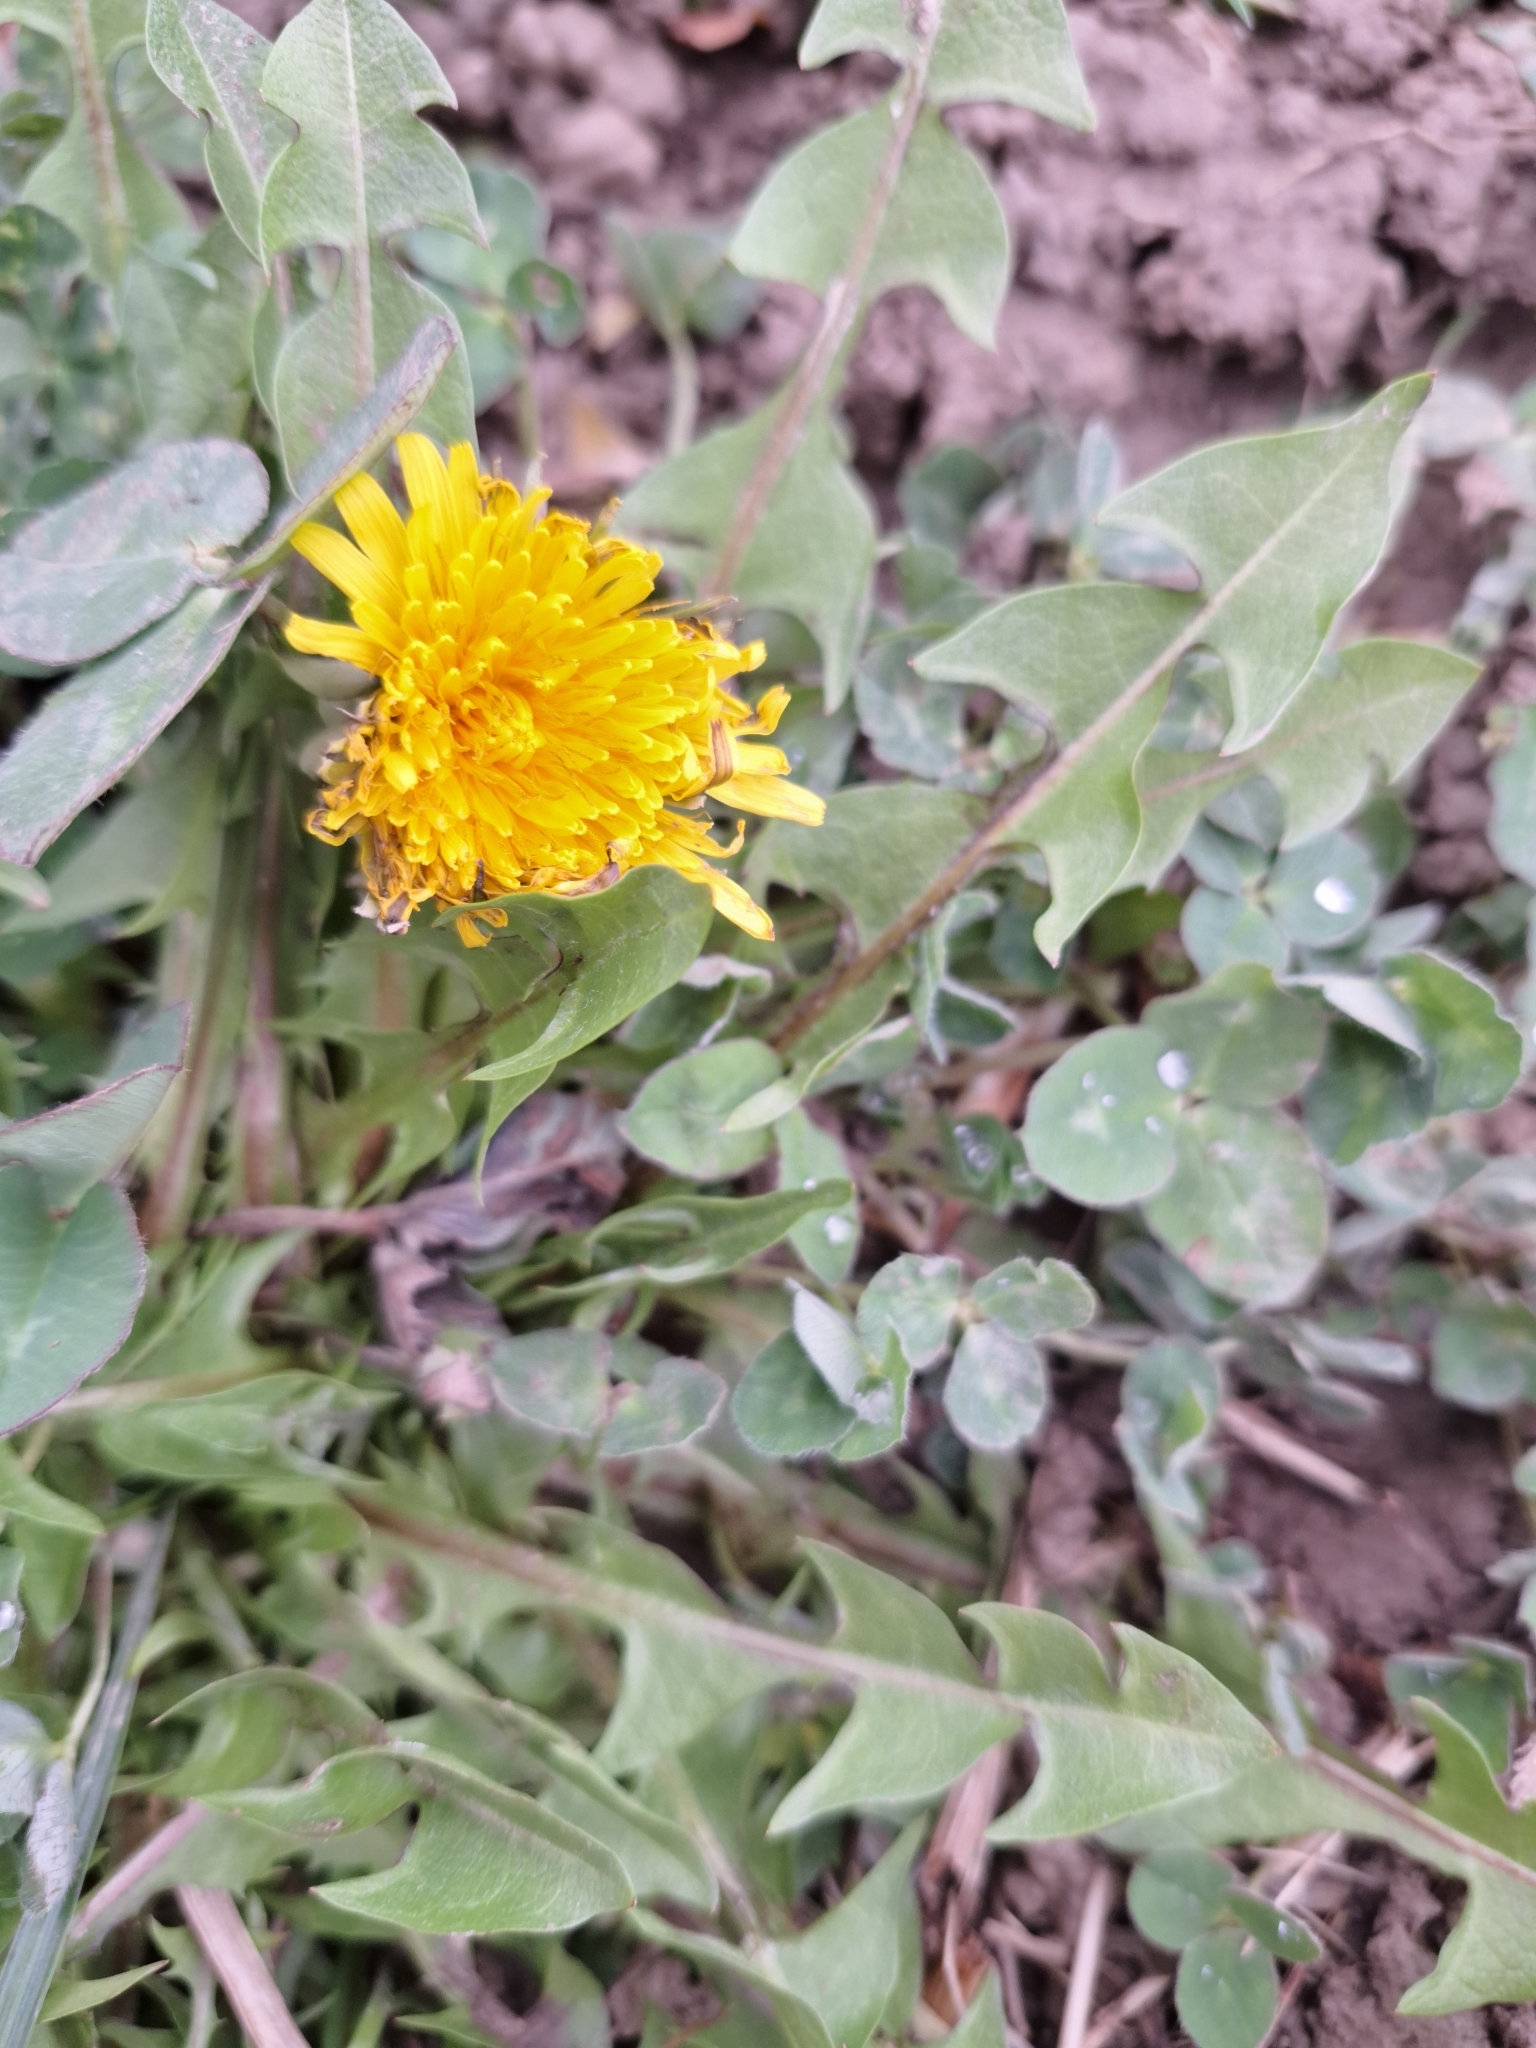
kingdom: Plantae
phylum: Tracheophyta
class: Magnoliopsida
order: Asterales
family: Asteraceae
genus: Taraxacum
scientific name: Taraxacum officinale
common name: Common dandelion
